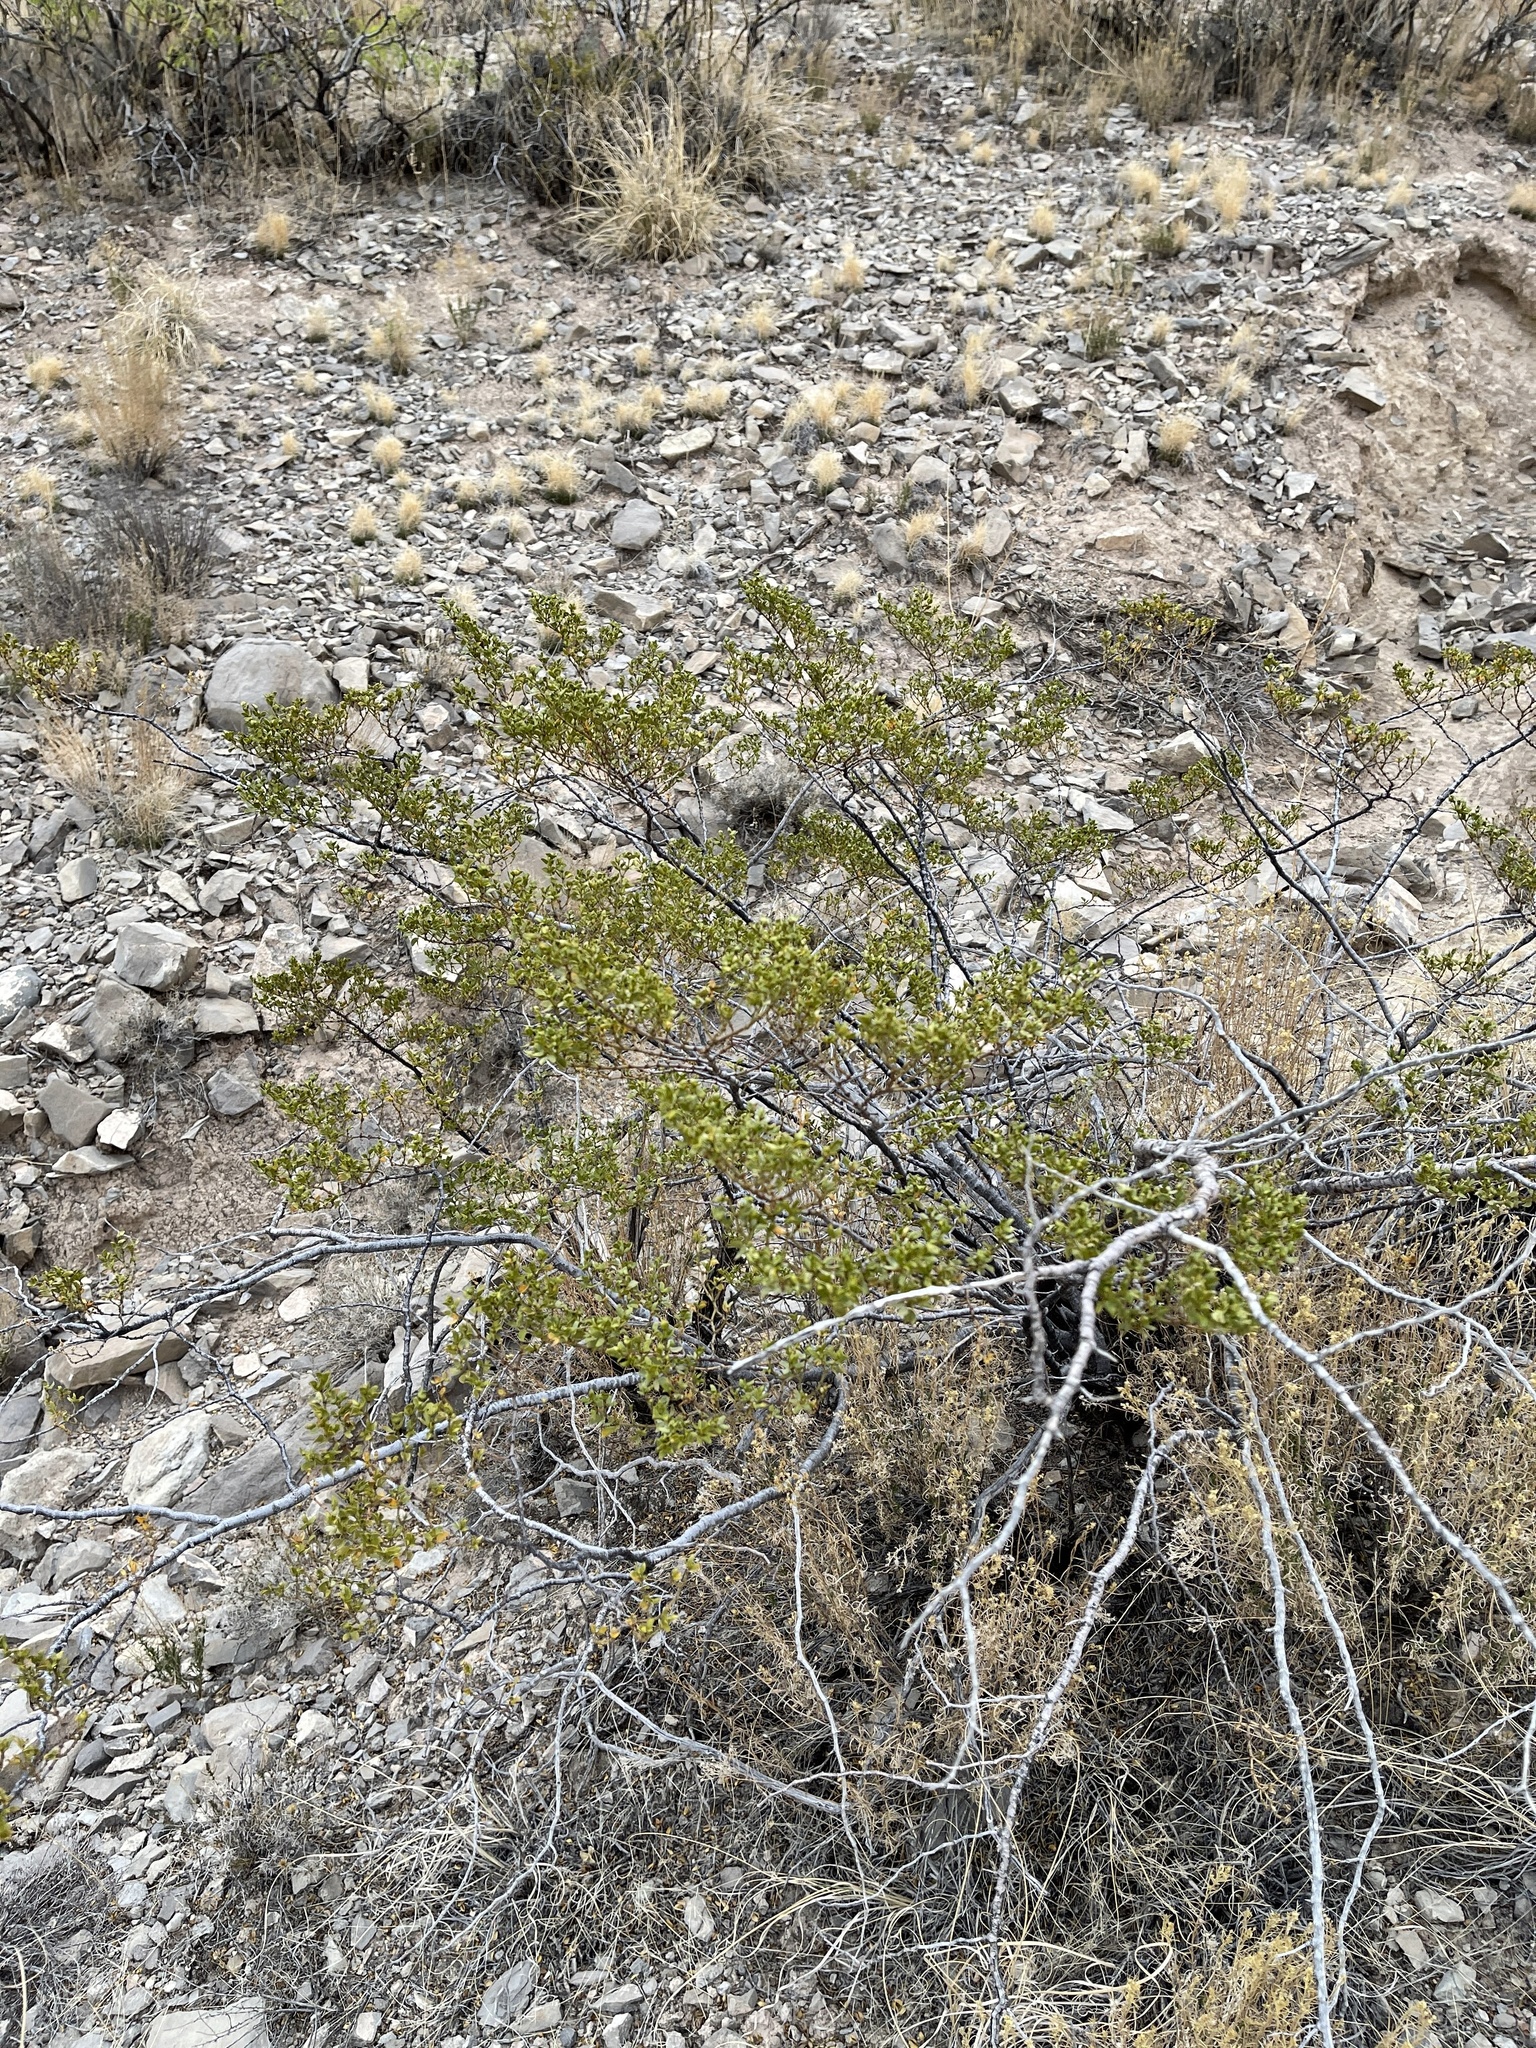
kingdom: Plantae
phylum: Tracheophyta
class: Magnoliopsida
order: Zygophyllales
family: Zygophyllaceae
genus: Larrea
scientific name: Larrea tridentata
